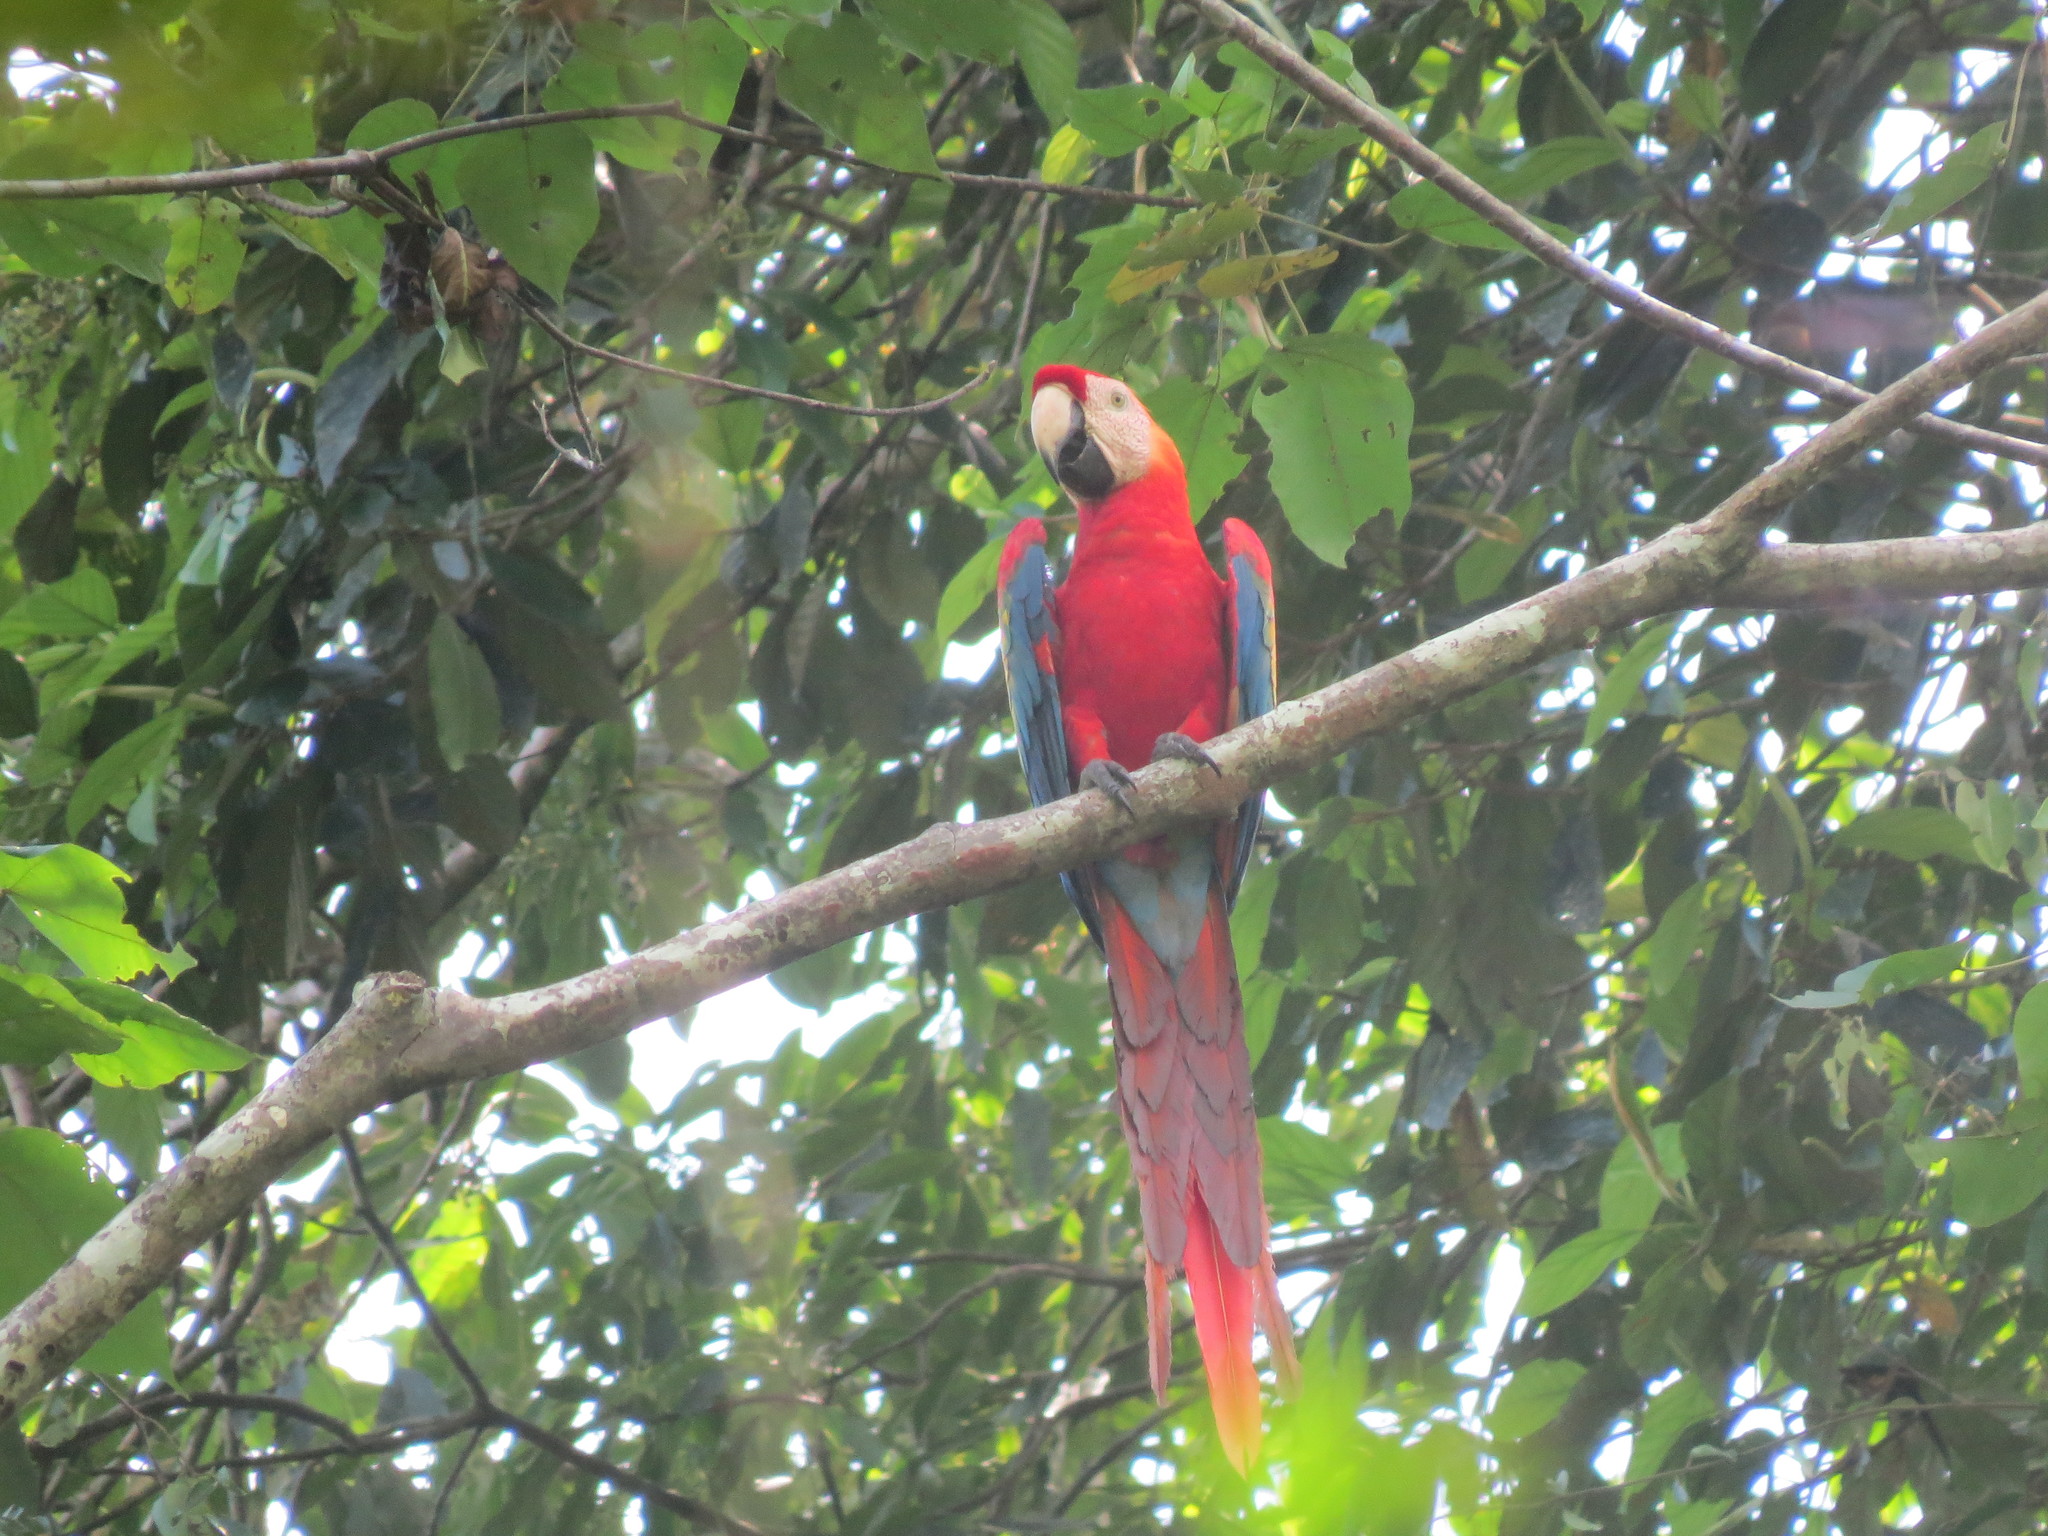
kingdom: Animalia
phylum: Chordata
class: Aves
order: Psittaciformes
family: Psittacidae
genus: Ara
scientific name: Ara macao
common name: Scarlet macaw
